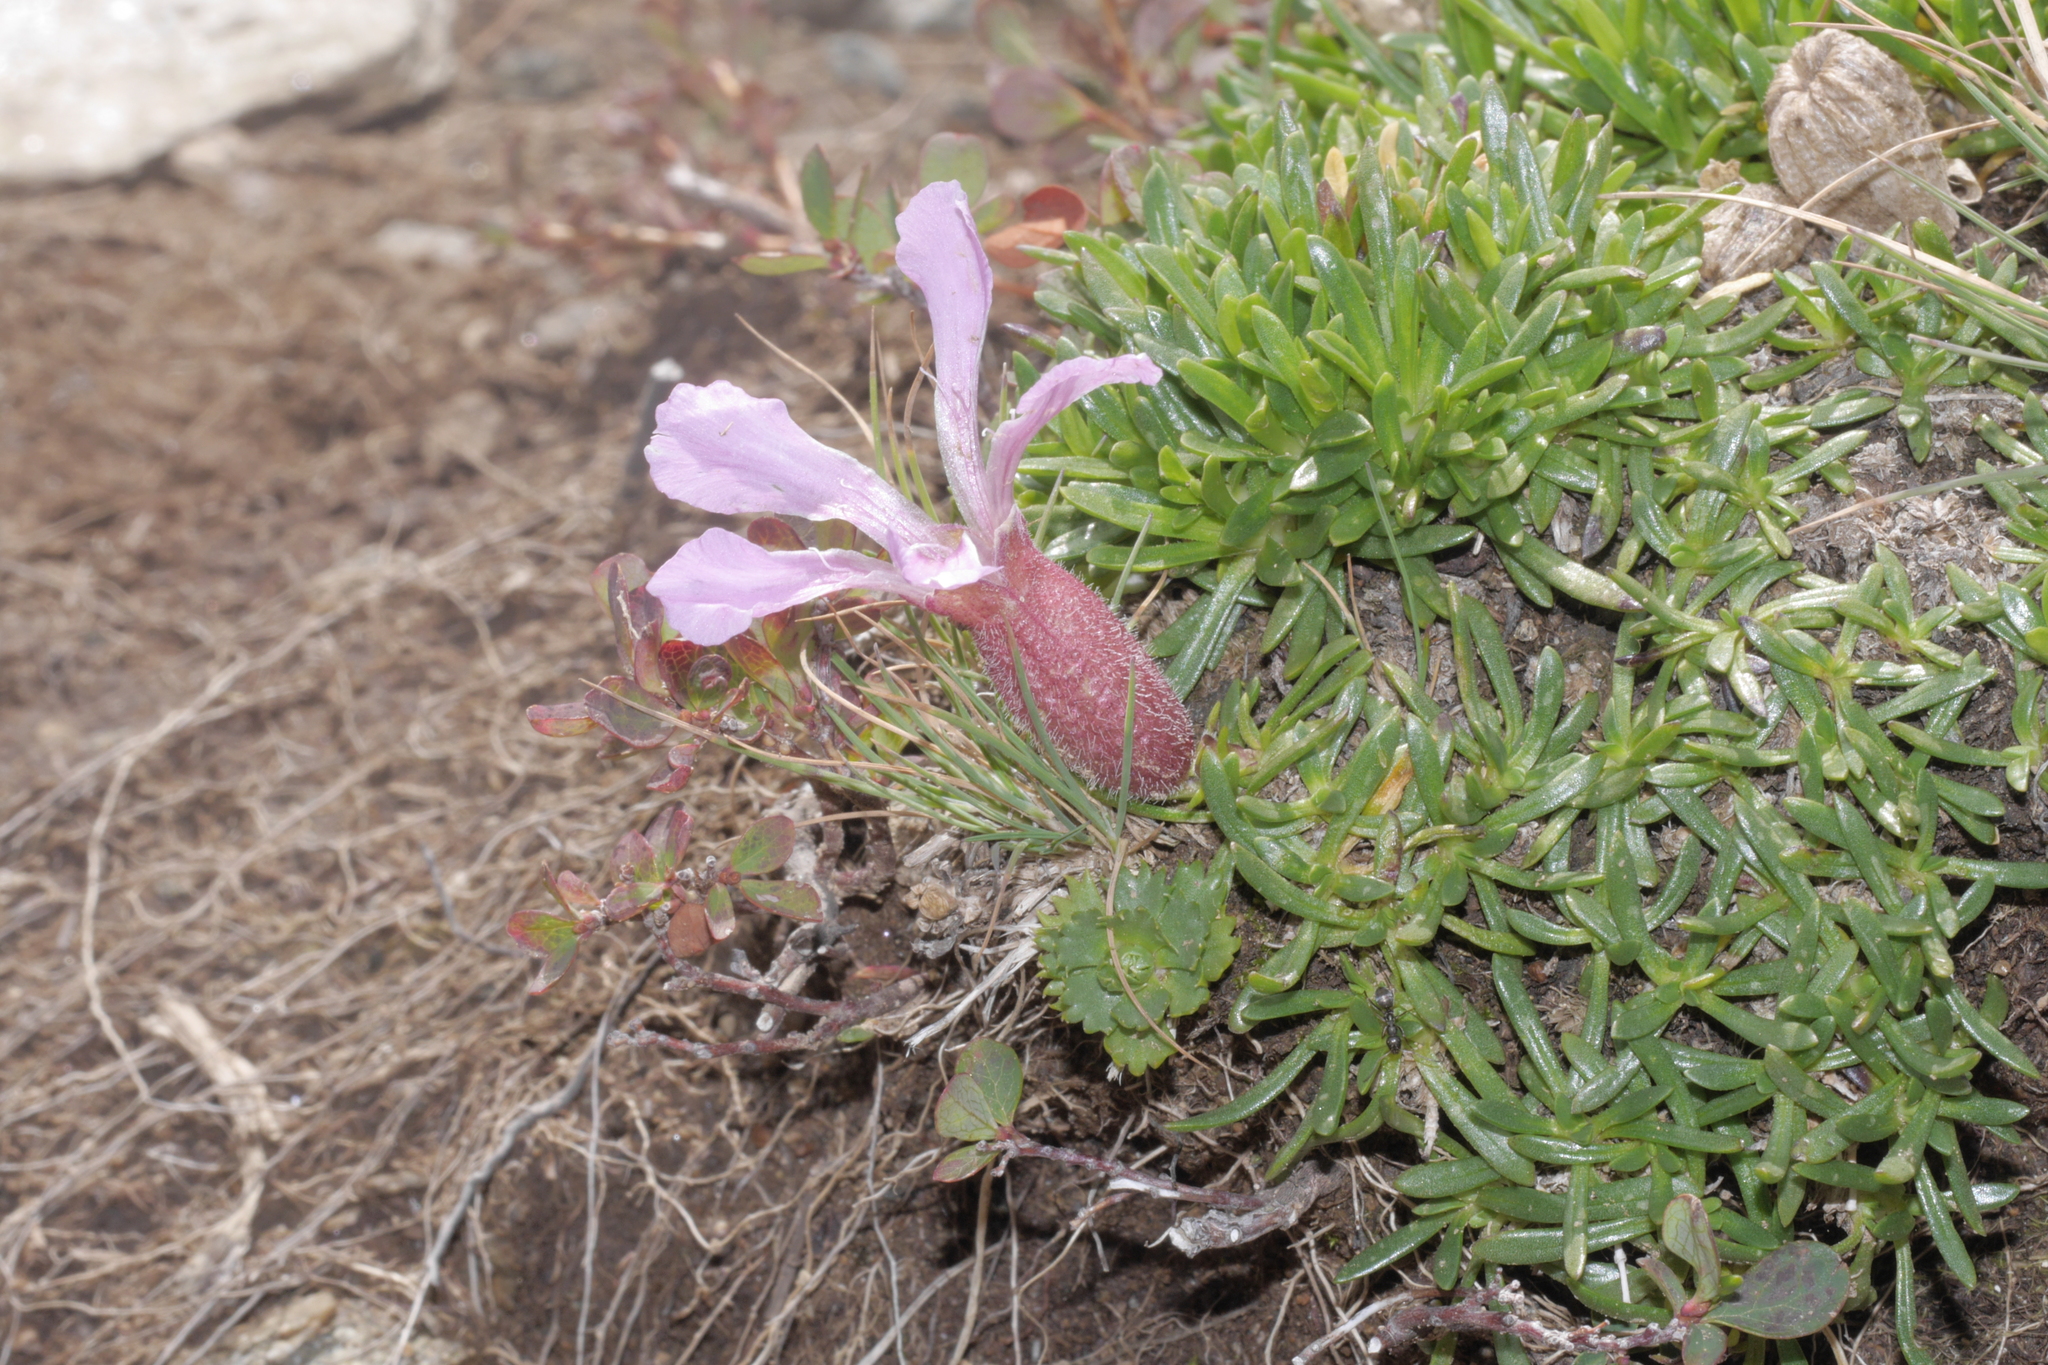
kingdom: Plantae
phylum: Tracheophyta
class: Magnoliopsida
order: Caryophyllales
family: Caryophyllaceae
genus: Saponaria
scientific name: Saponaria pumila
